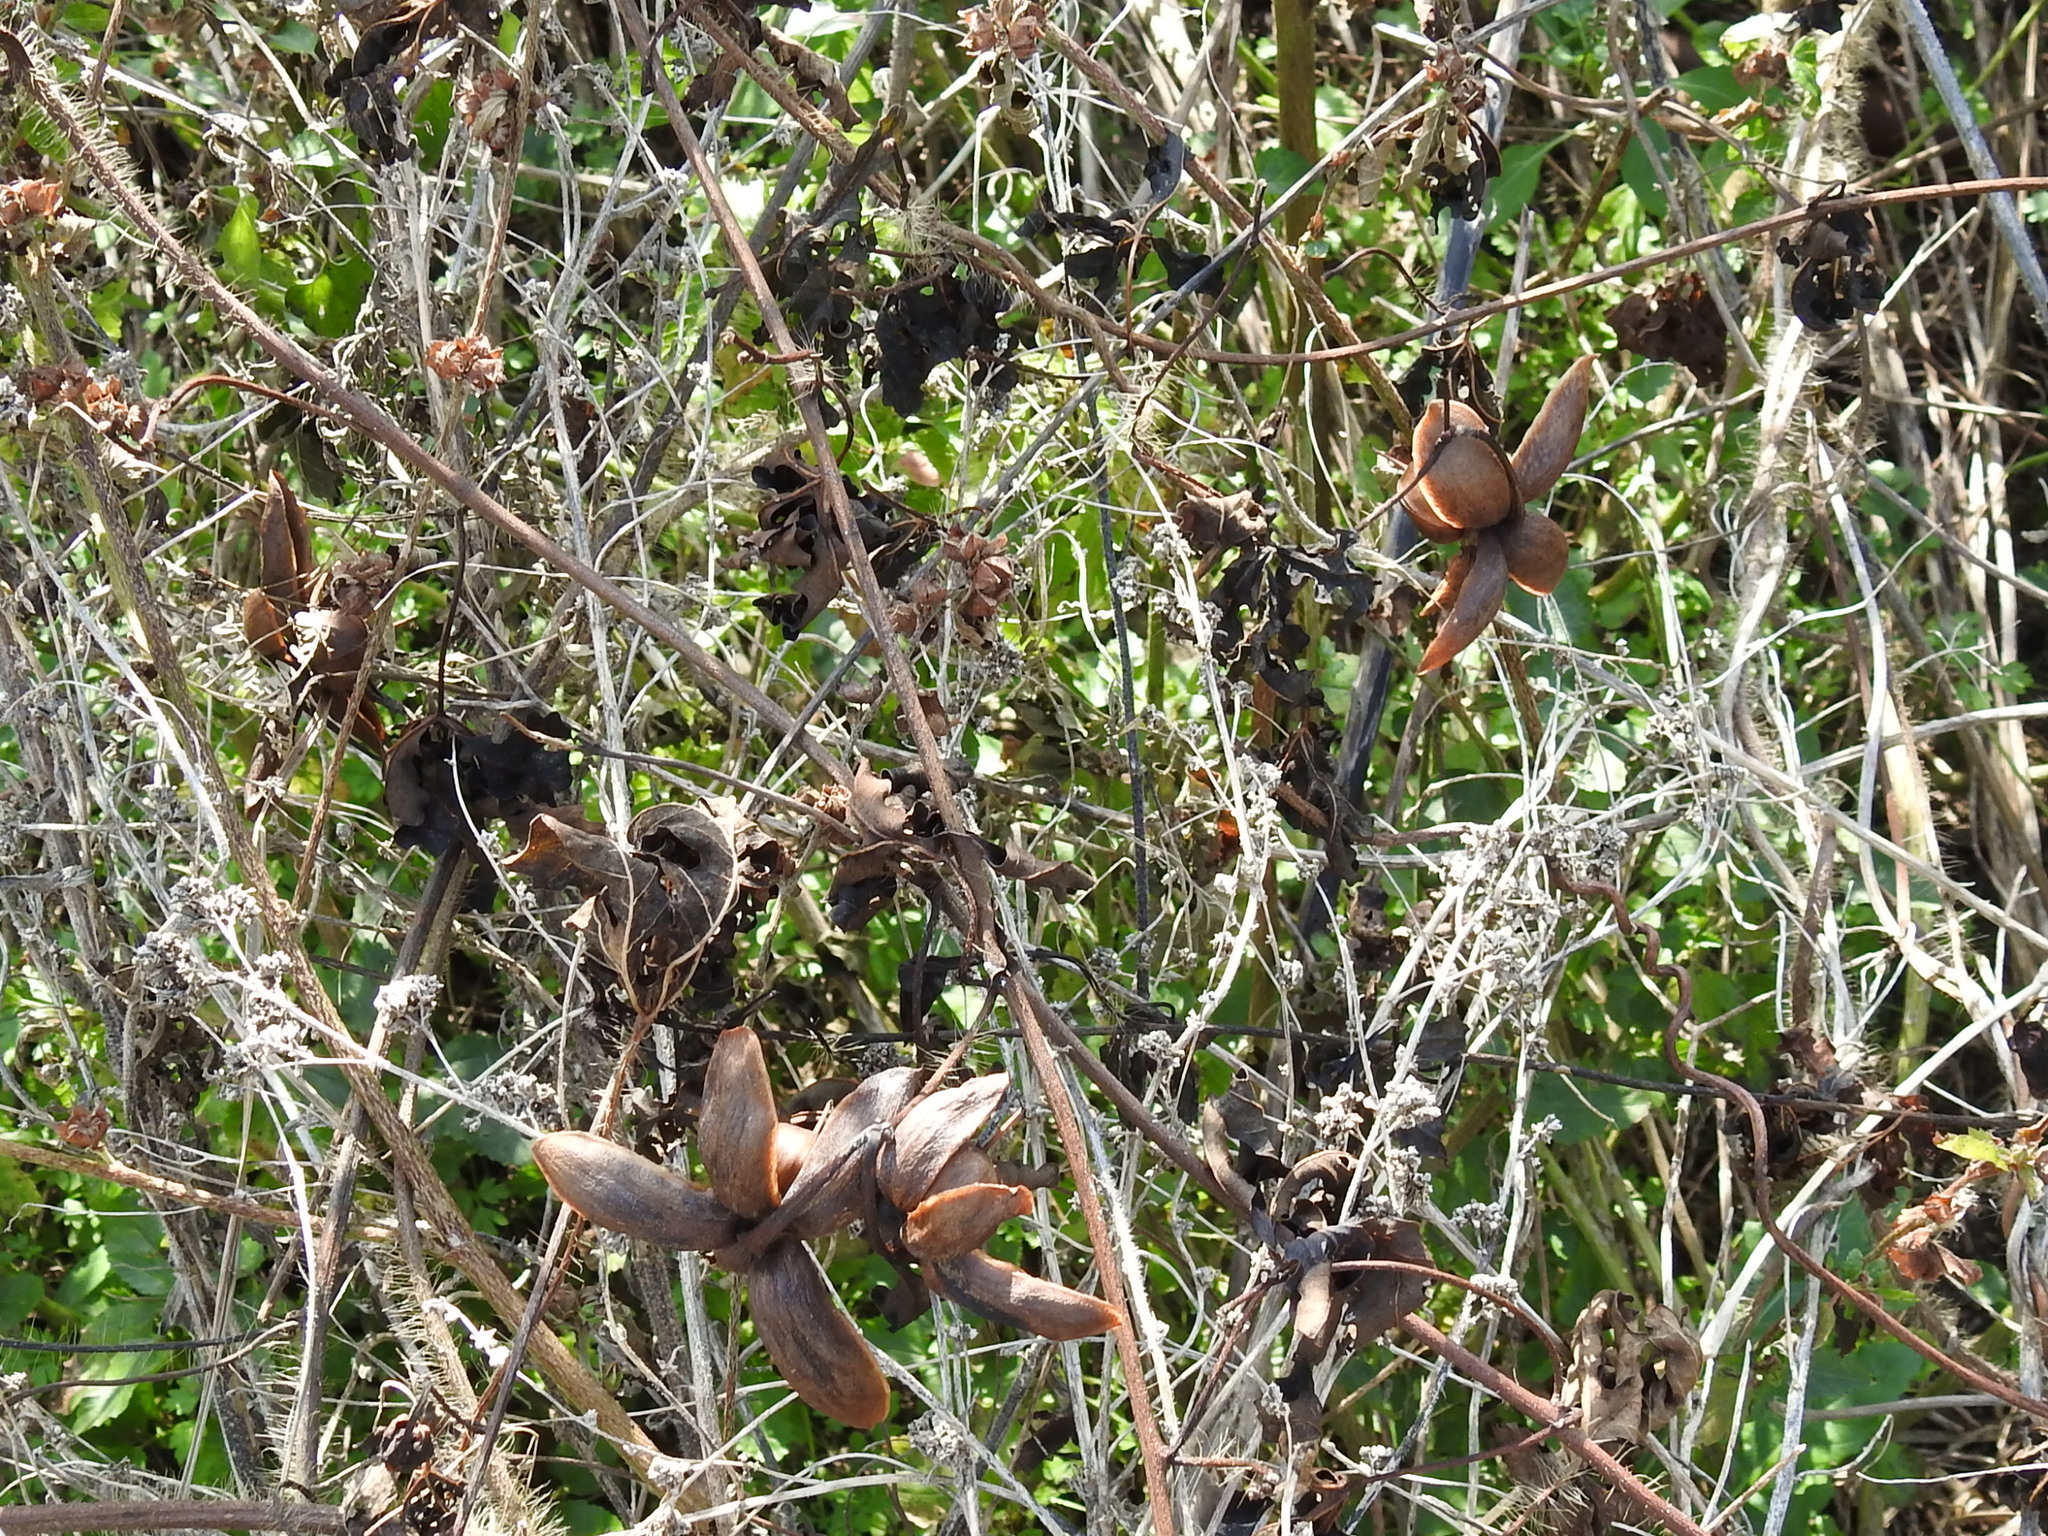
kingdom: Plantae
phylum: Tracheophyta
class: Magnoliopsida
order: Solanales
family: Convolvulaceae
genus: Distimake
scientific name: Distimake dissectus
